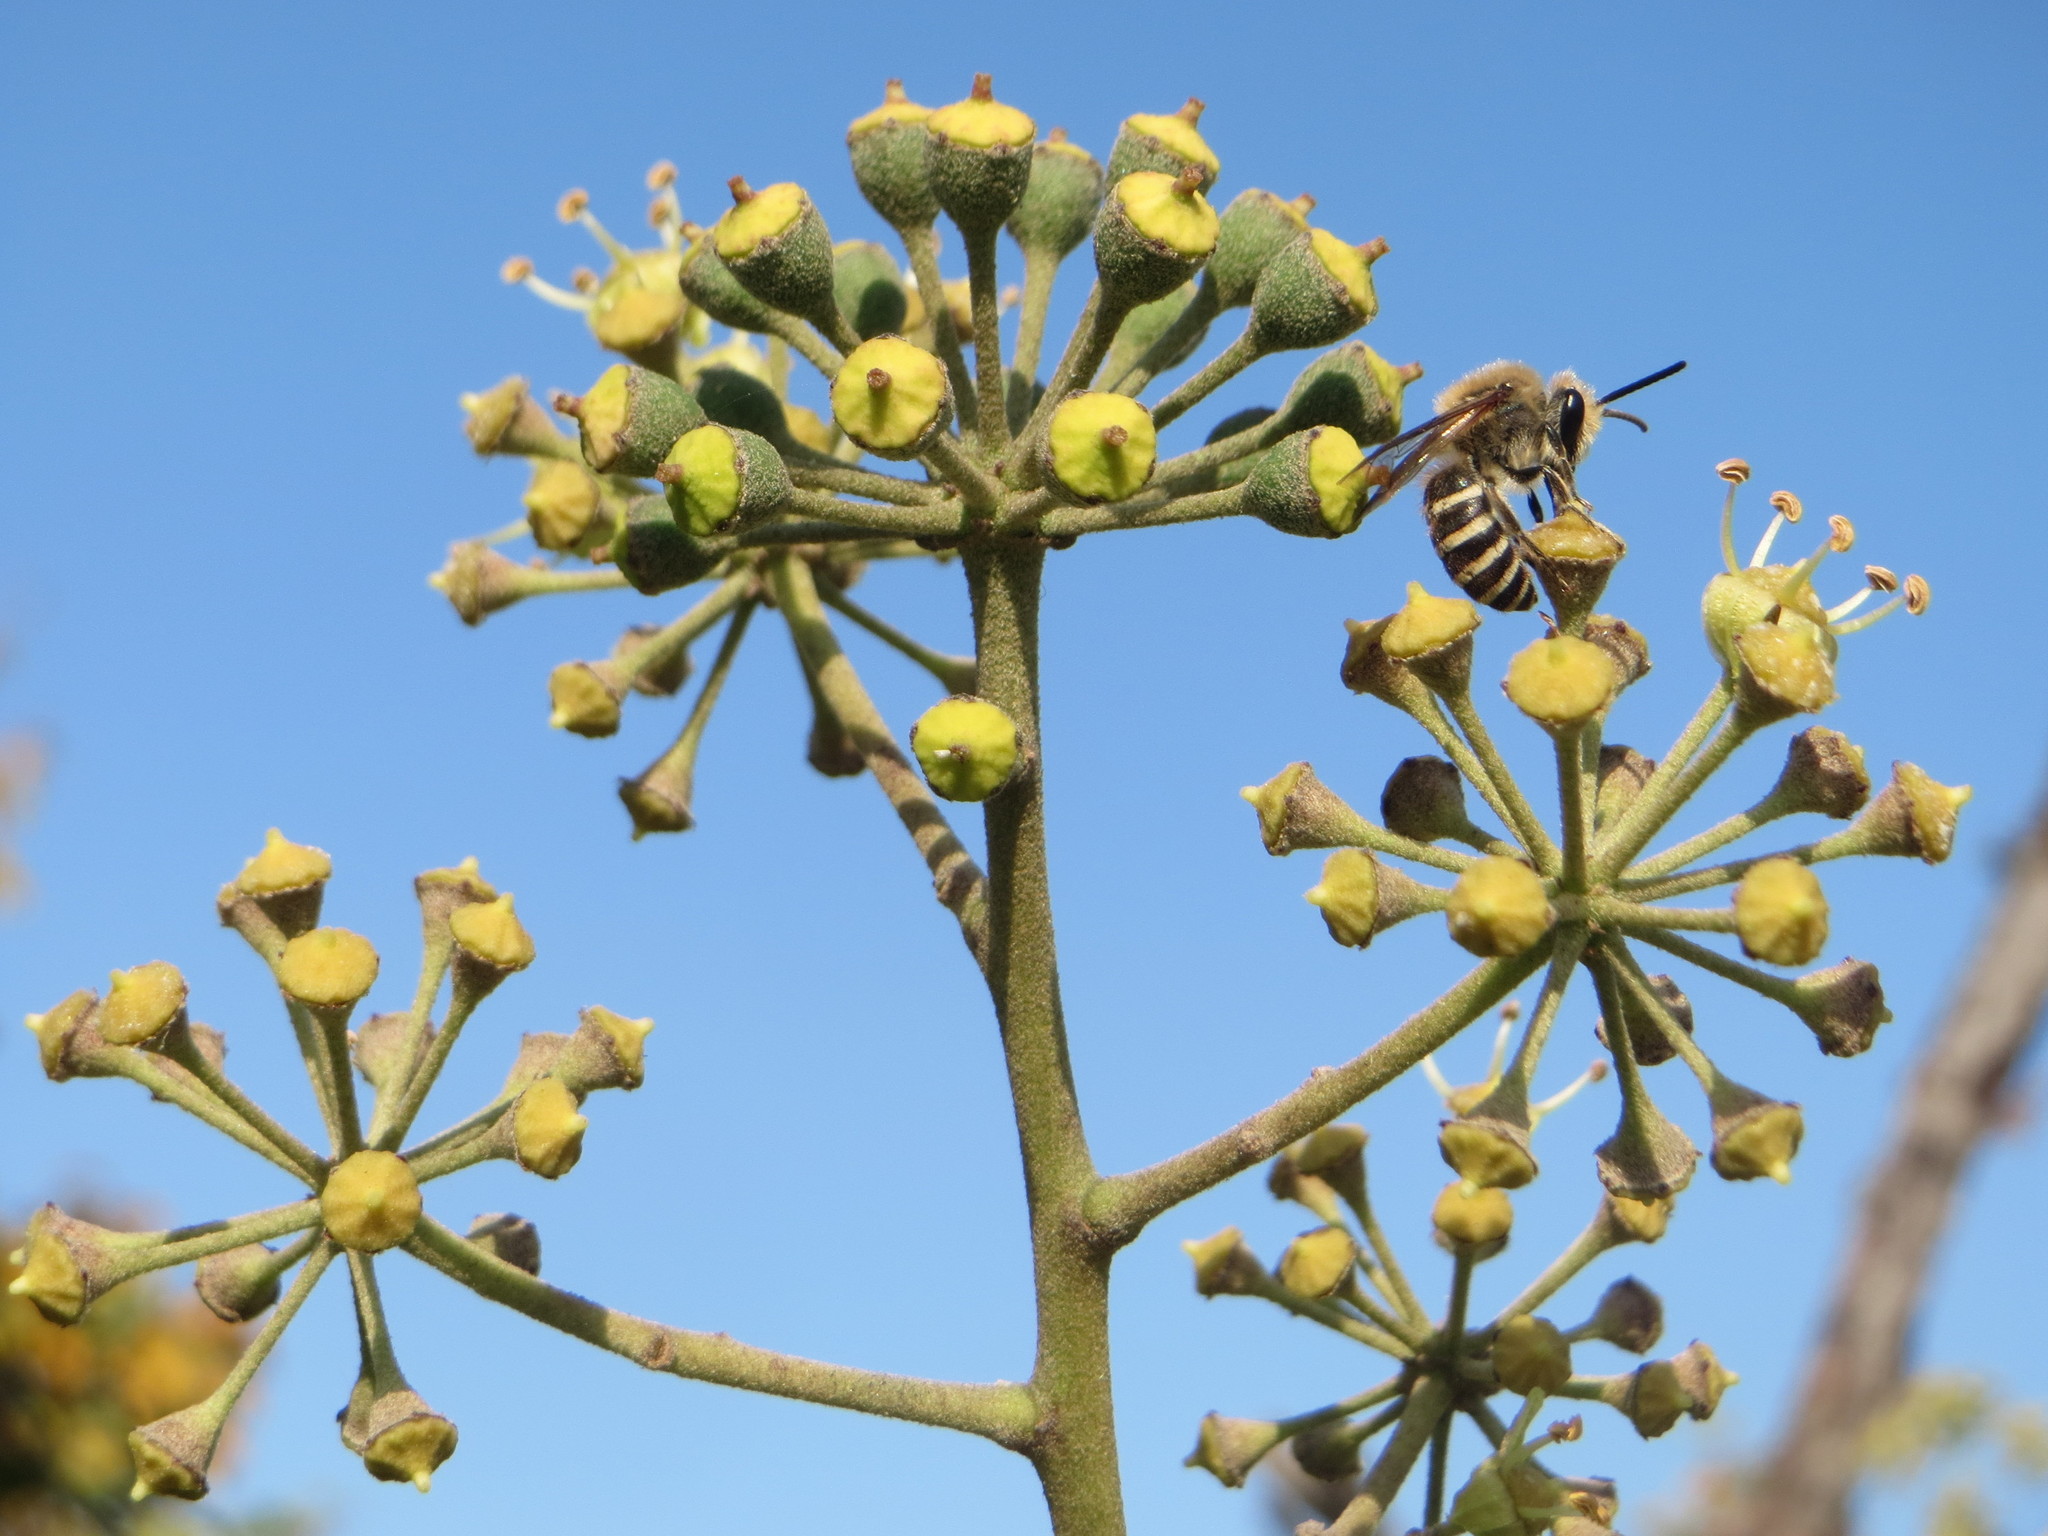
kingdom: Animalia
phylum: Arthropoda
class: Insecta
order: Hymenoptera
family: Colletidae
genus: Colletes
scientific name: Colletes hederae
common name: Ivy bee
